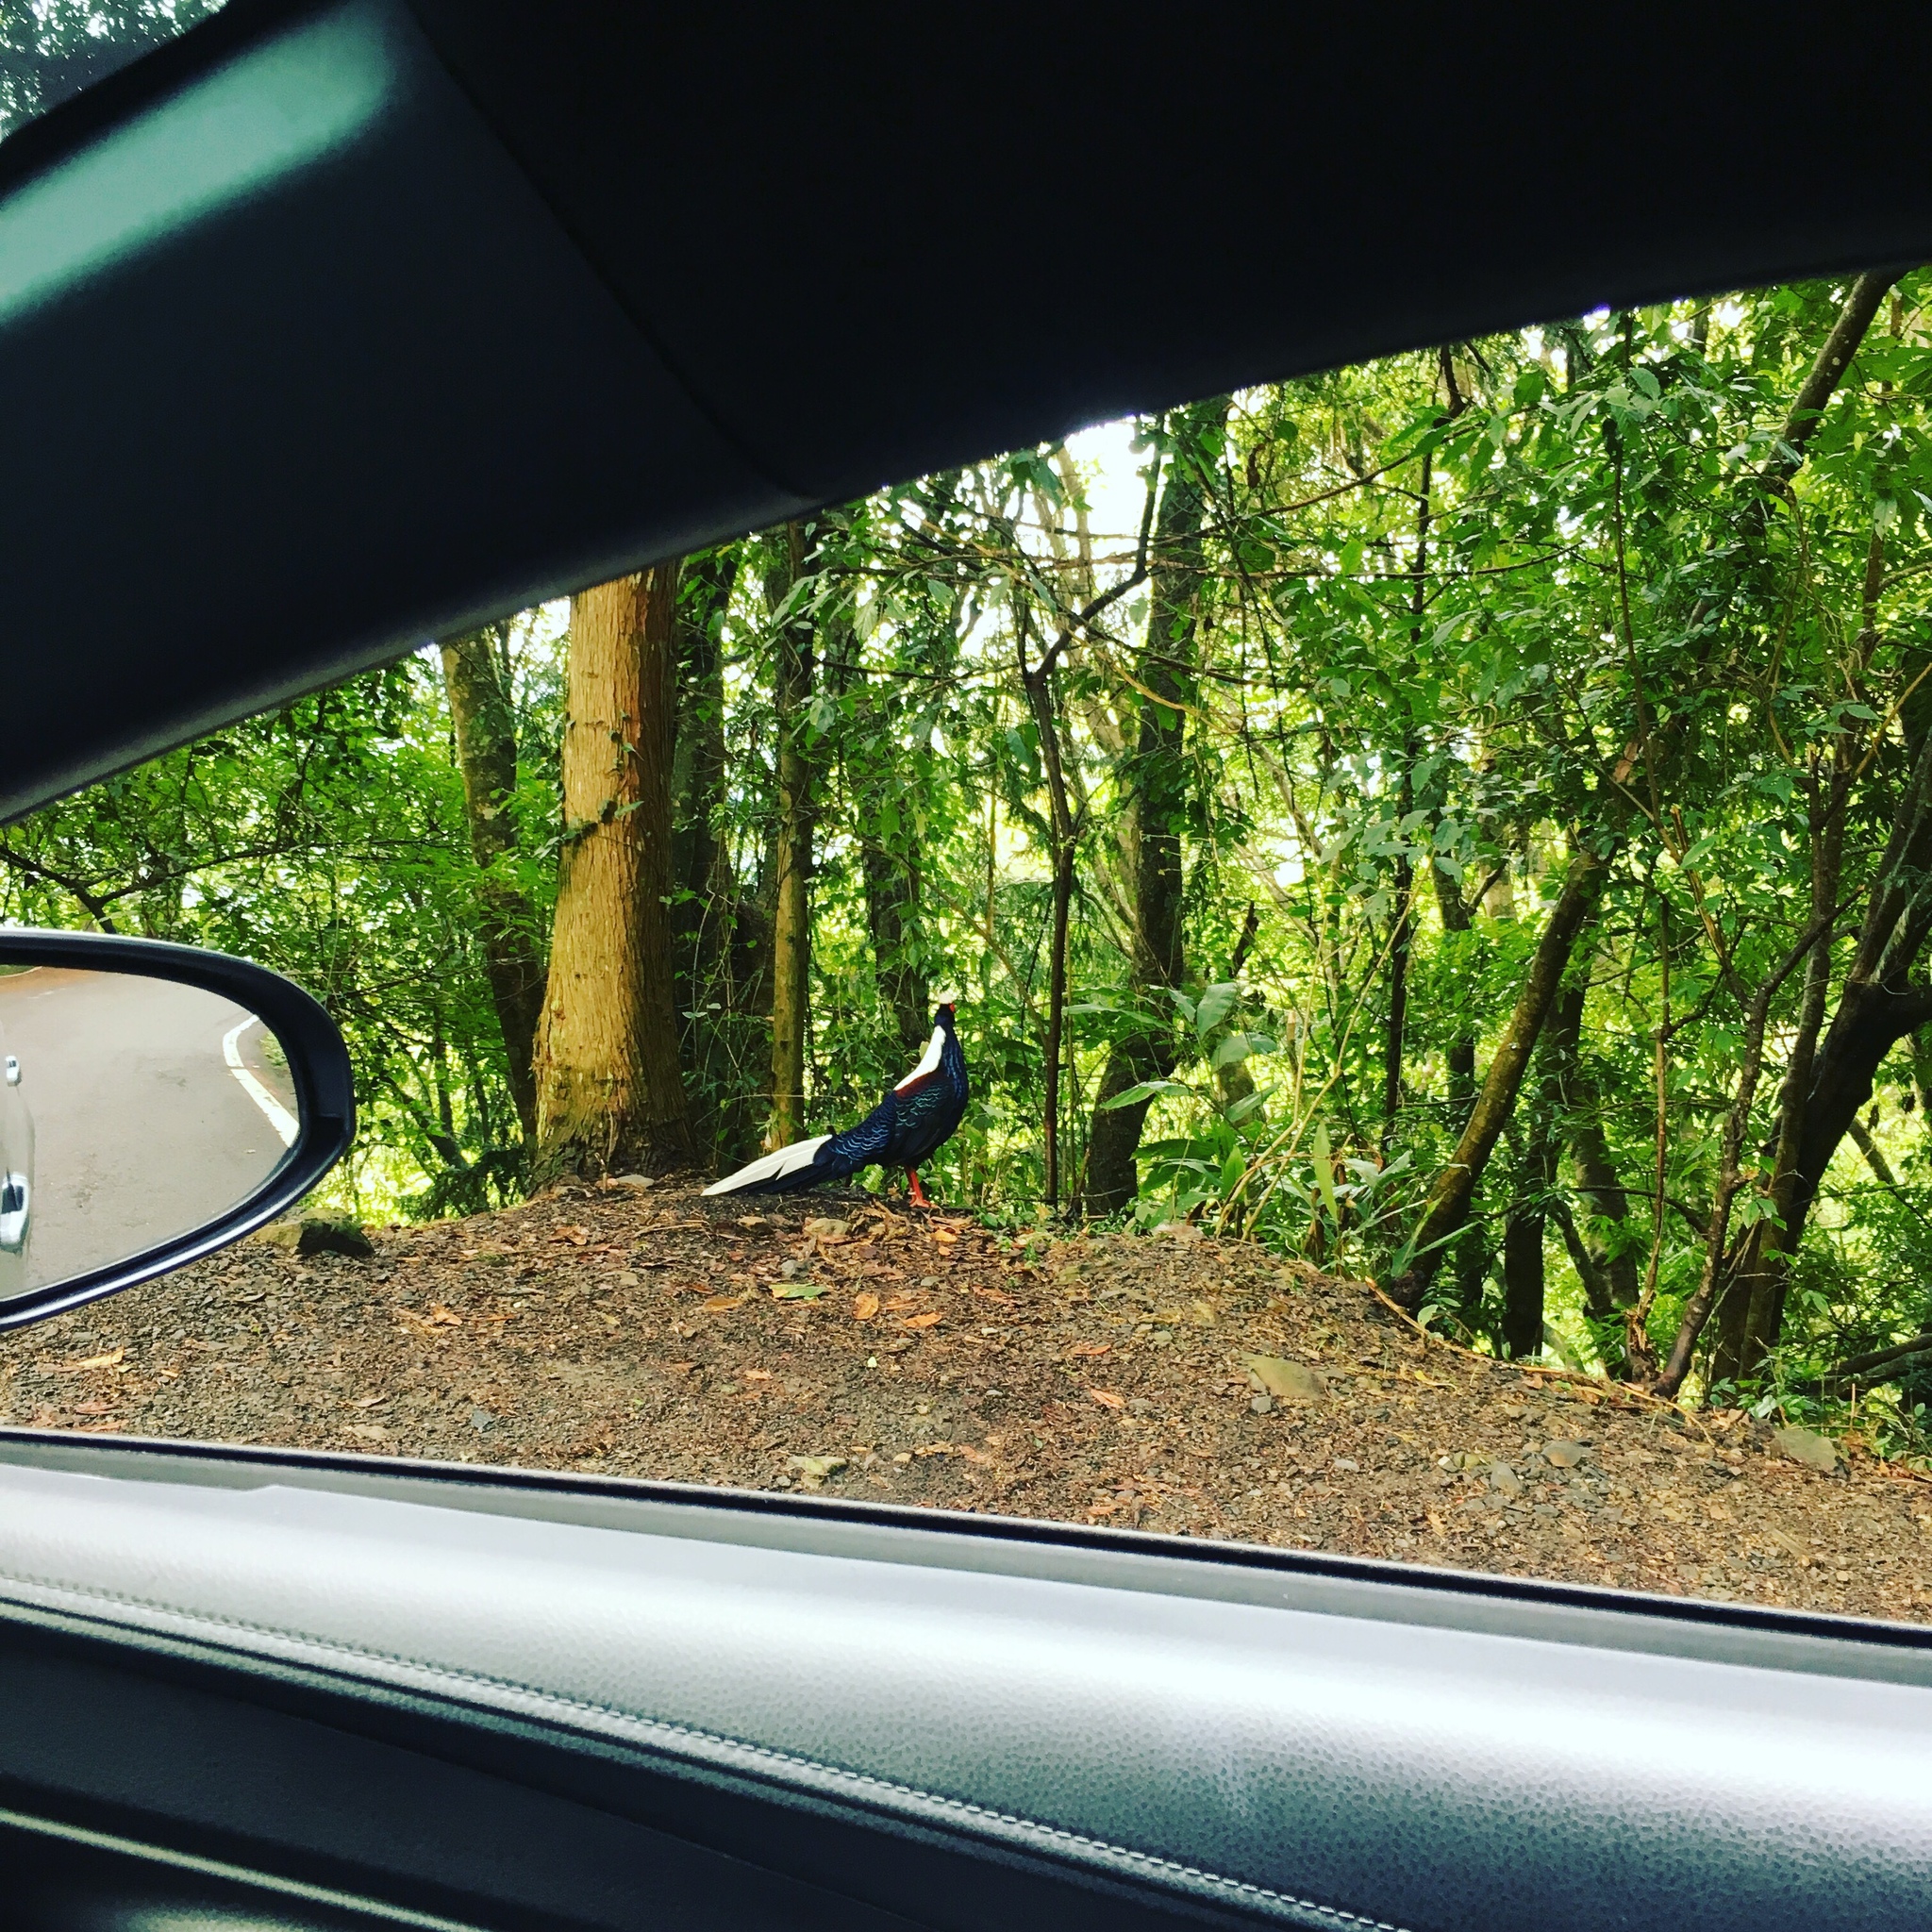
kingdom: Animalia
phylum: Chordata
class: Aves
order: Galliformes
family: Phasianidae
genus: Lophura
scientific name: Lophura swinhoii
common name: Swinhoe's pheasant
